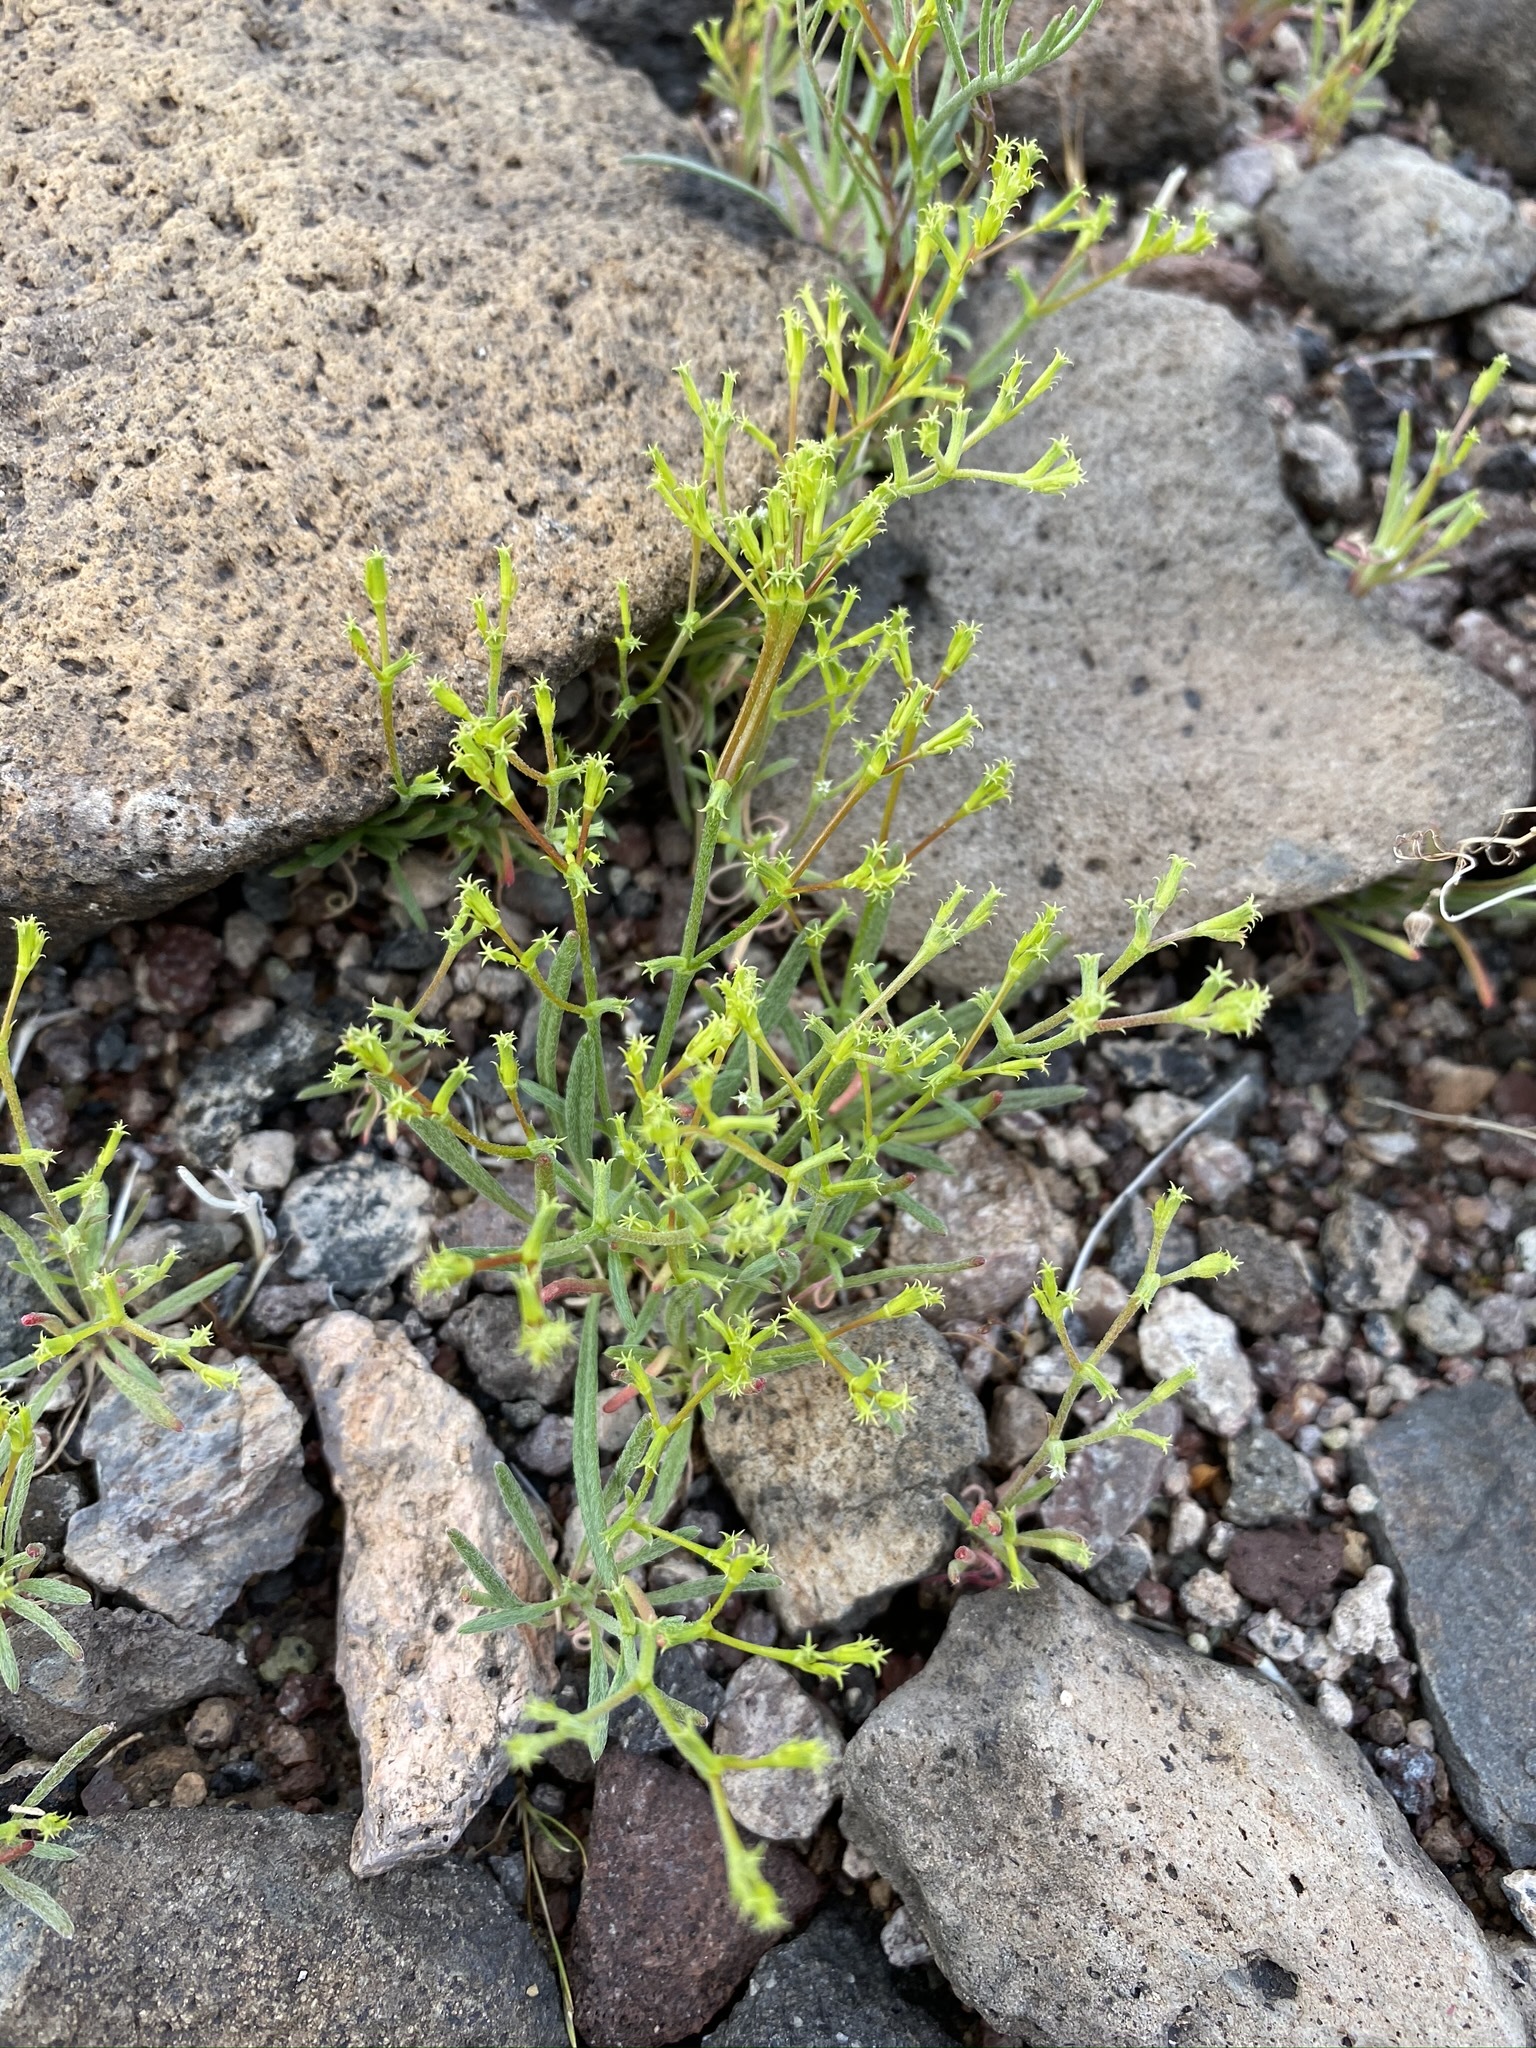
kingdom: Plantae
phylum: Tracheophyta
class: Magnoliopsida
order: Caryophyllales
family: Polygonaceae
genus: Chorizanthe
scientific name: Chorizanthe brevicornu
